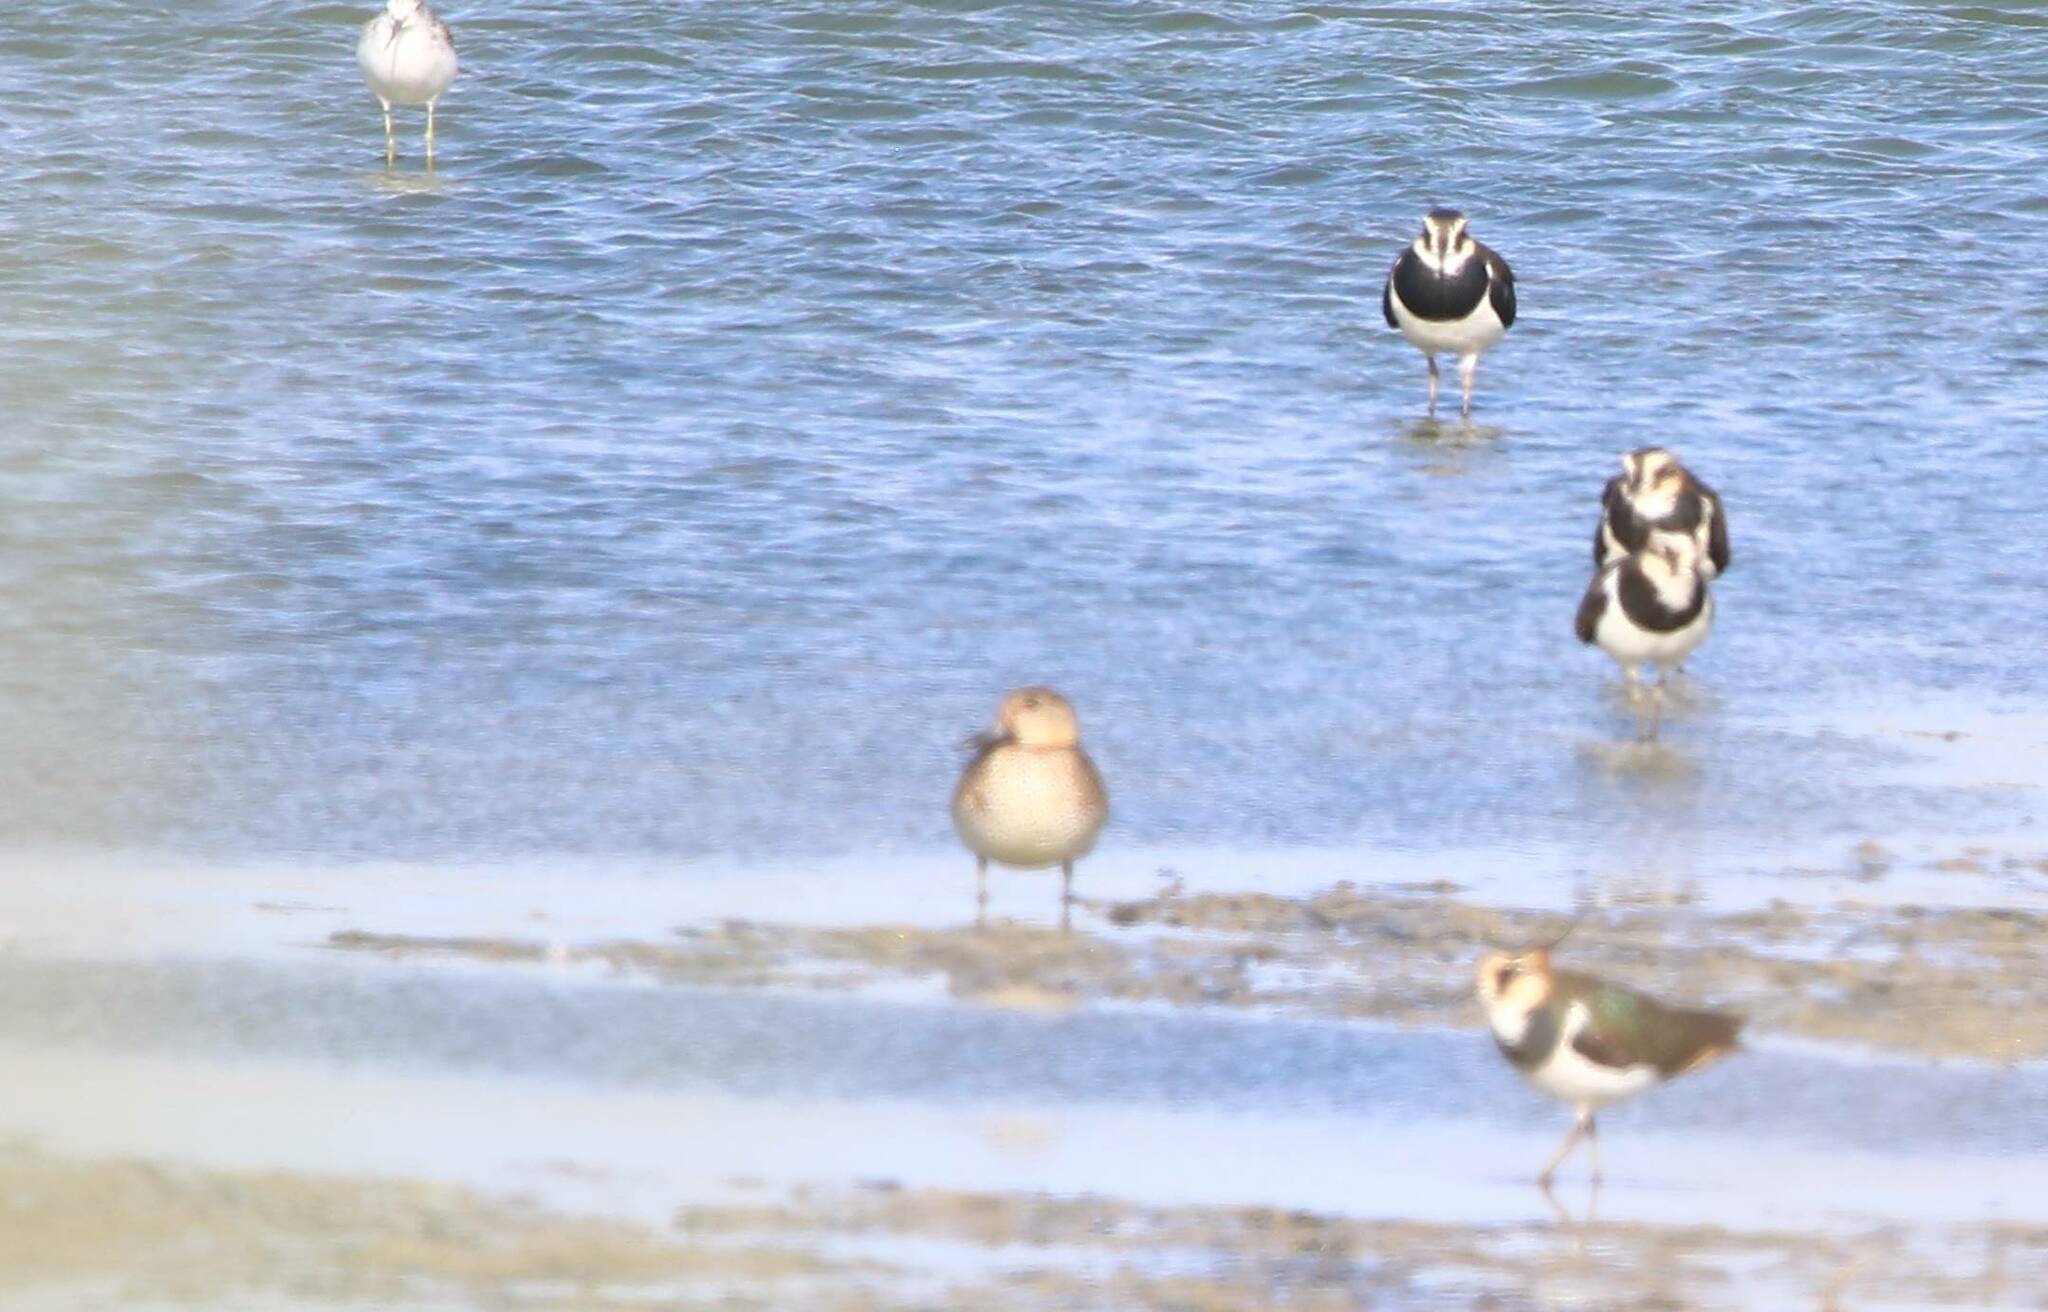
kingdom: Animalia
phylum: Chordata
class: Aves
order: Charadriiformes
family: Charadriidae
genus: Vanellus
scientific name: Vanellus vanellus
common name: Northern lapwing
